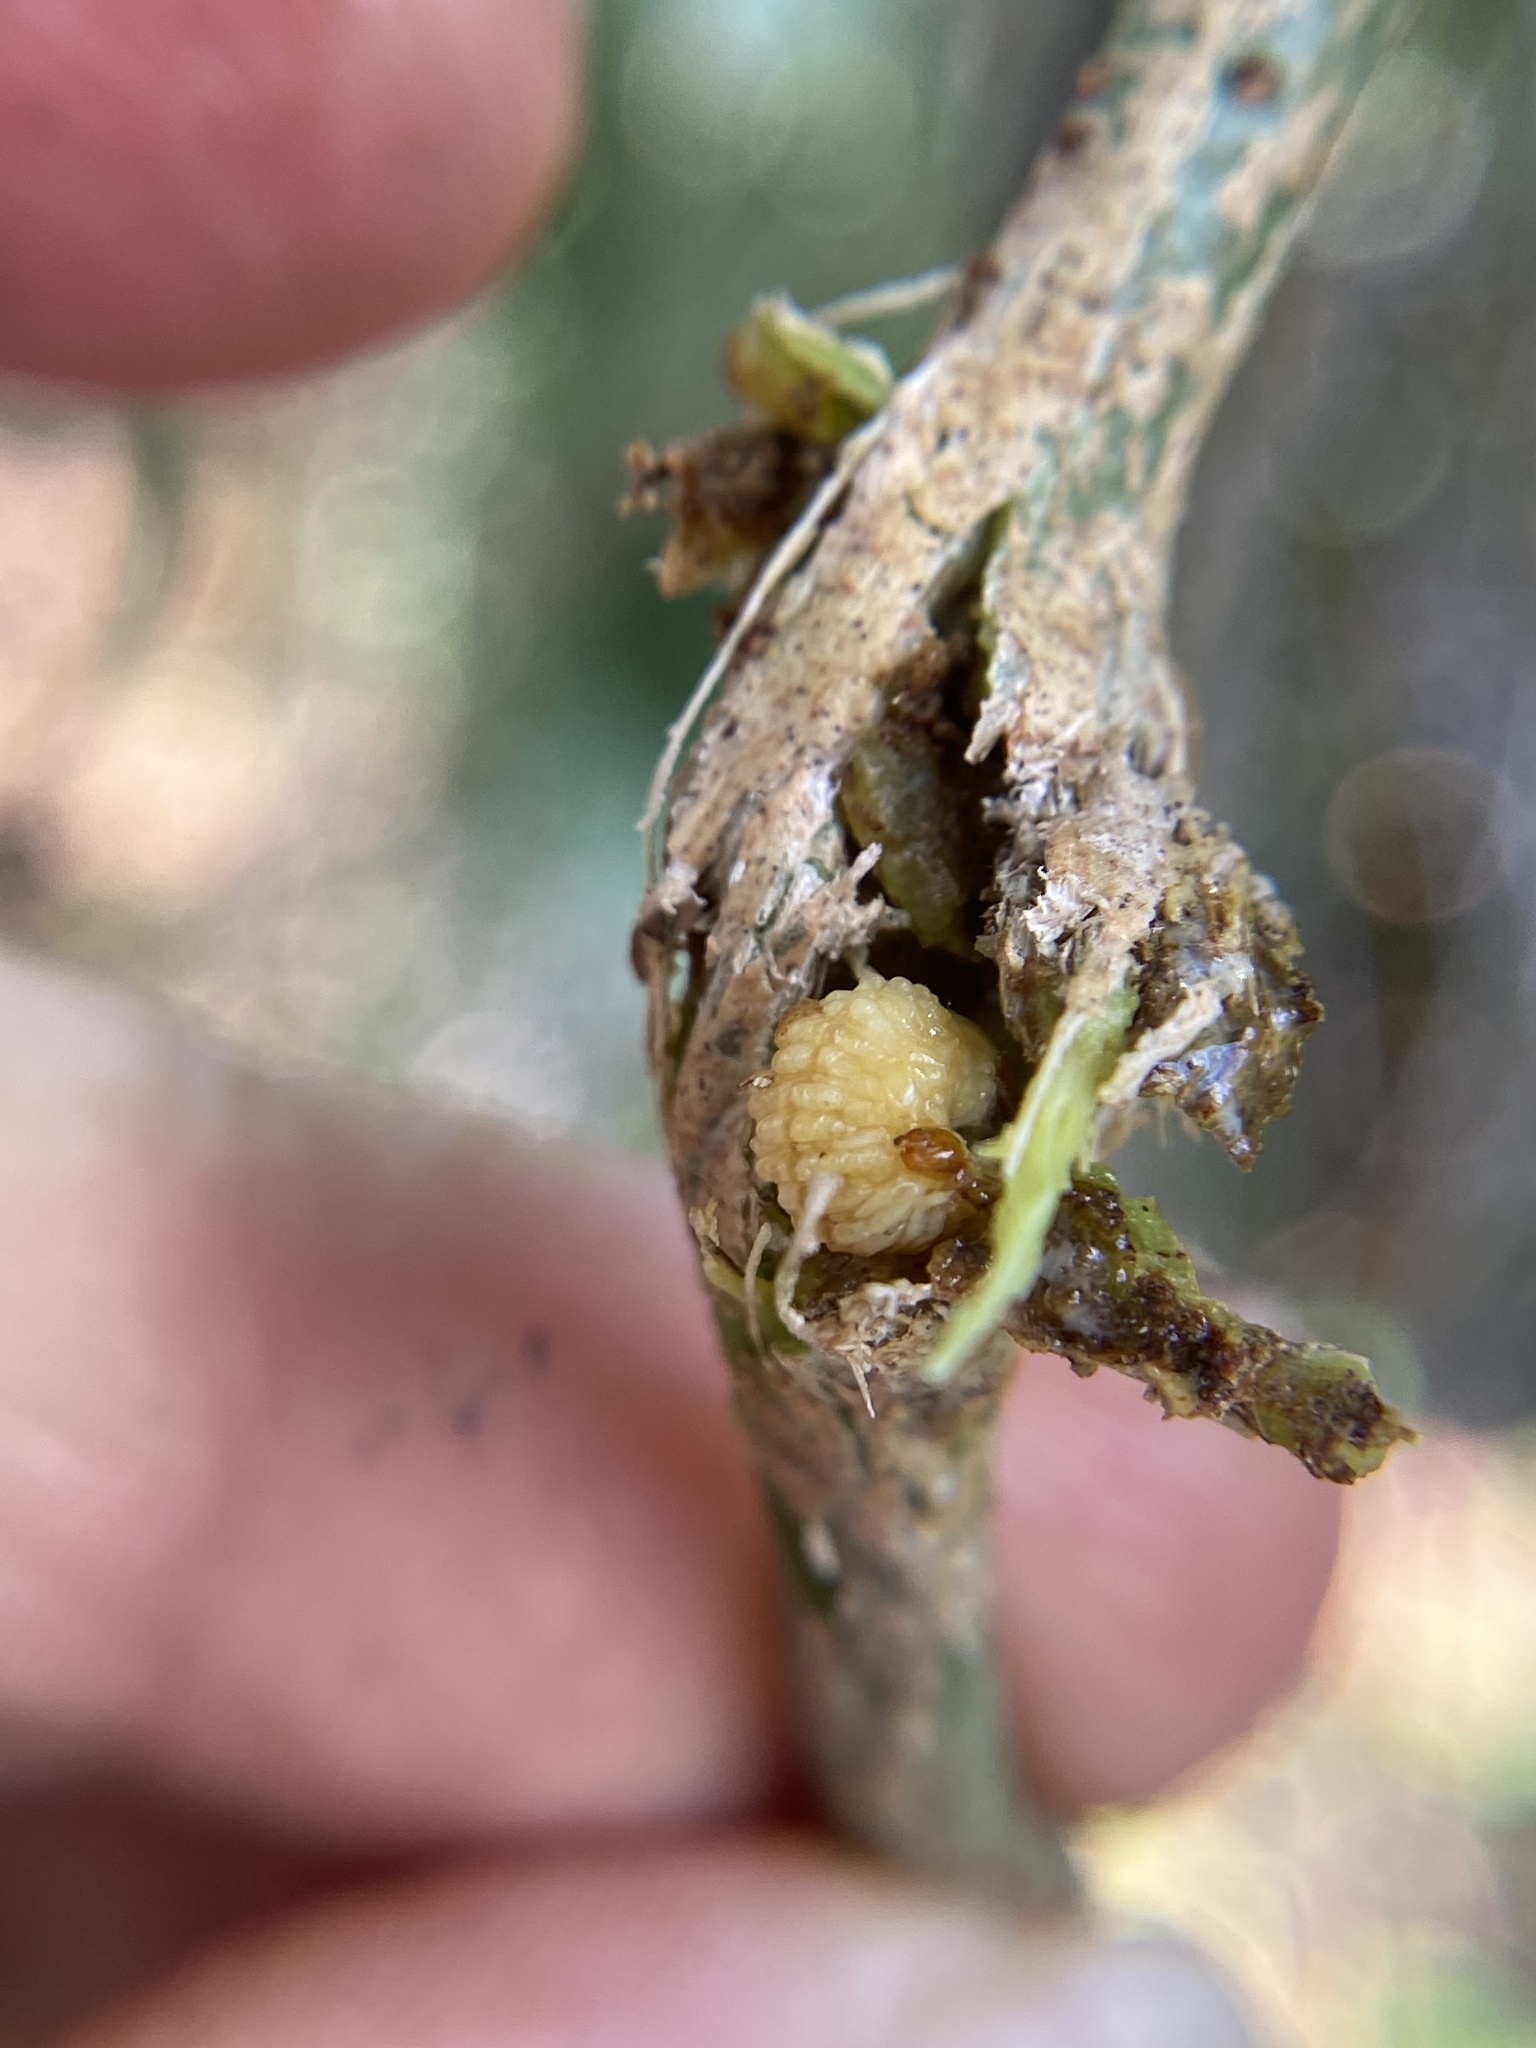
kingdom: Animalia
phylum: Arthropoda
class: Insecta
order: Coleoptera
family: Eurhynchidae
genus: Eurhinus
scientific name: Eurhinus magnificus
